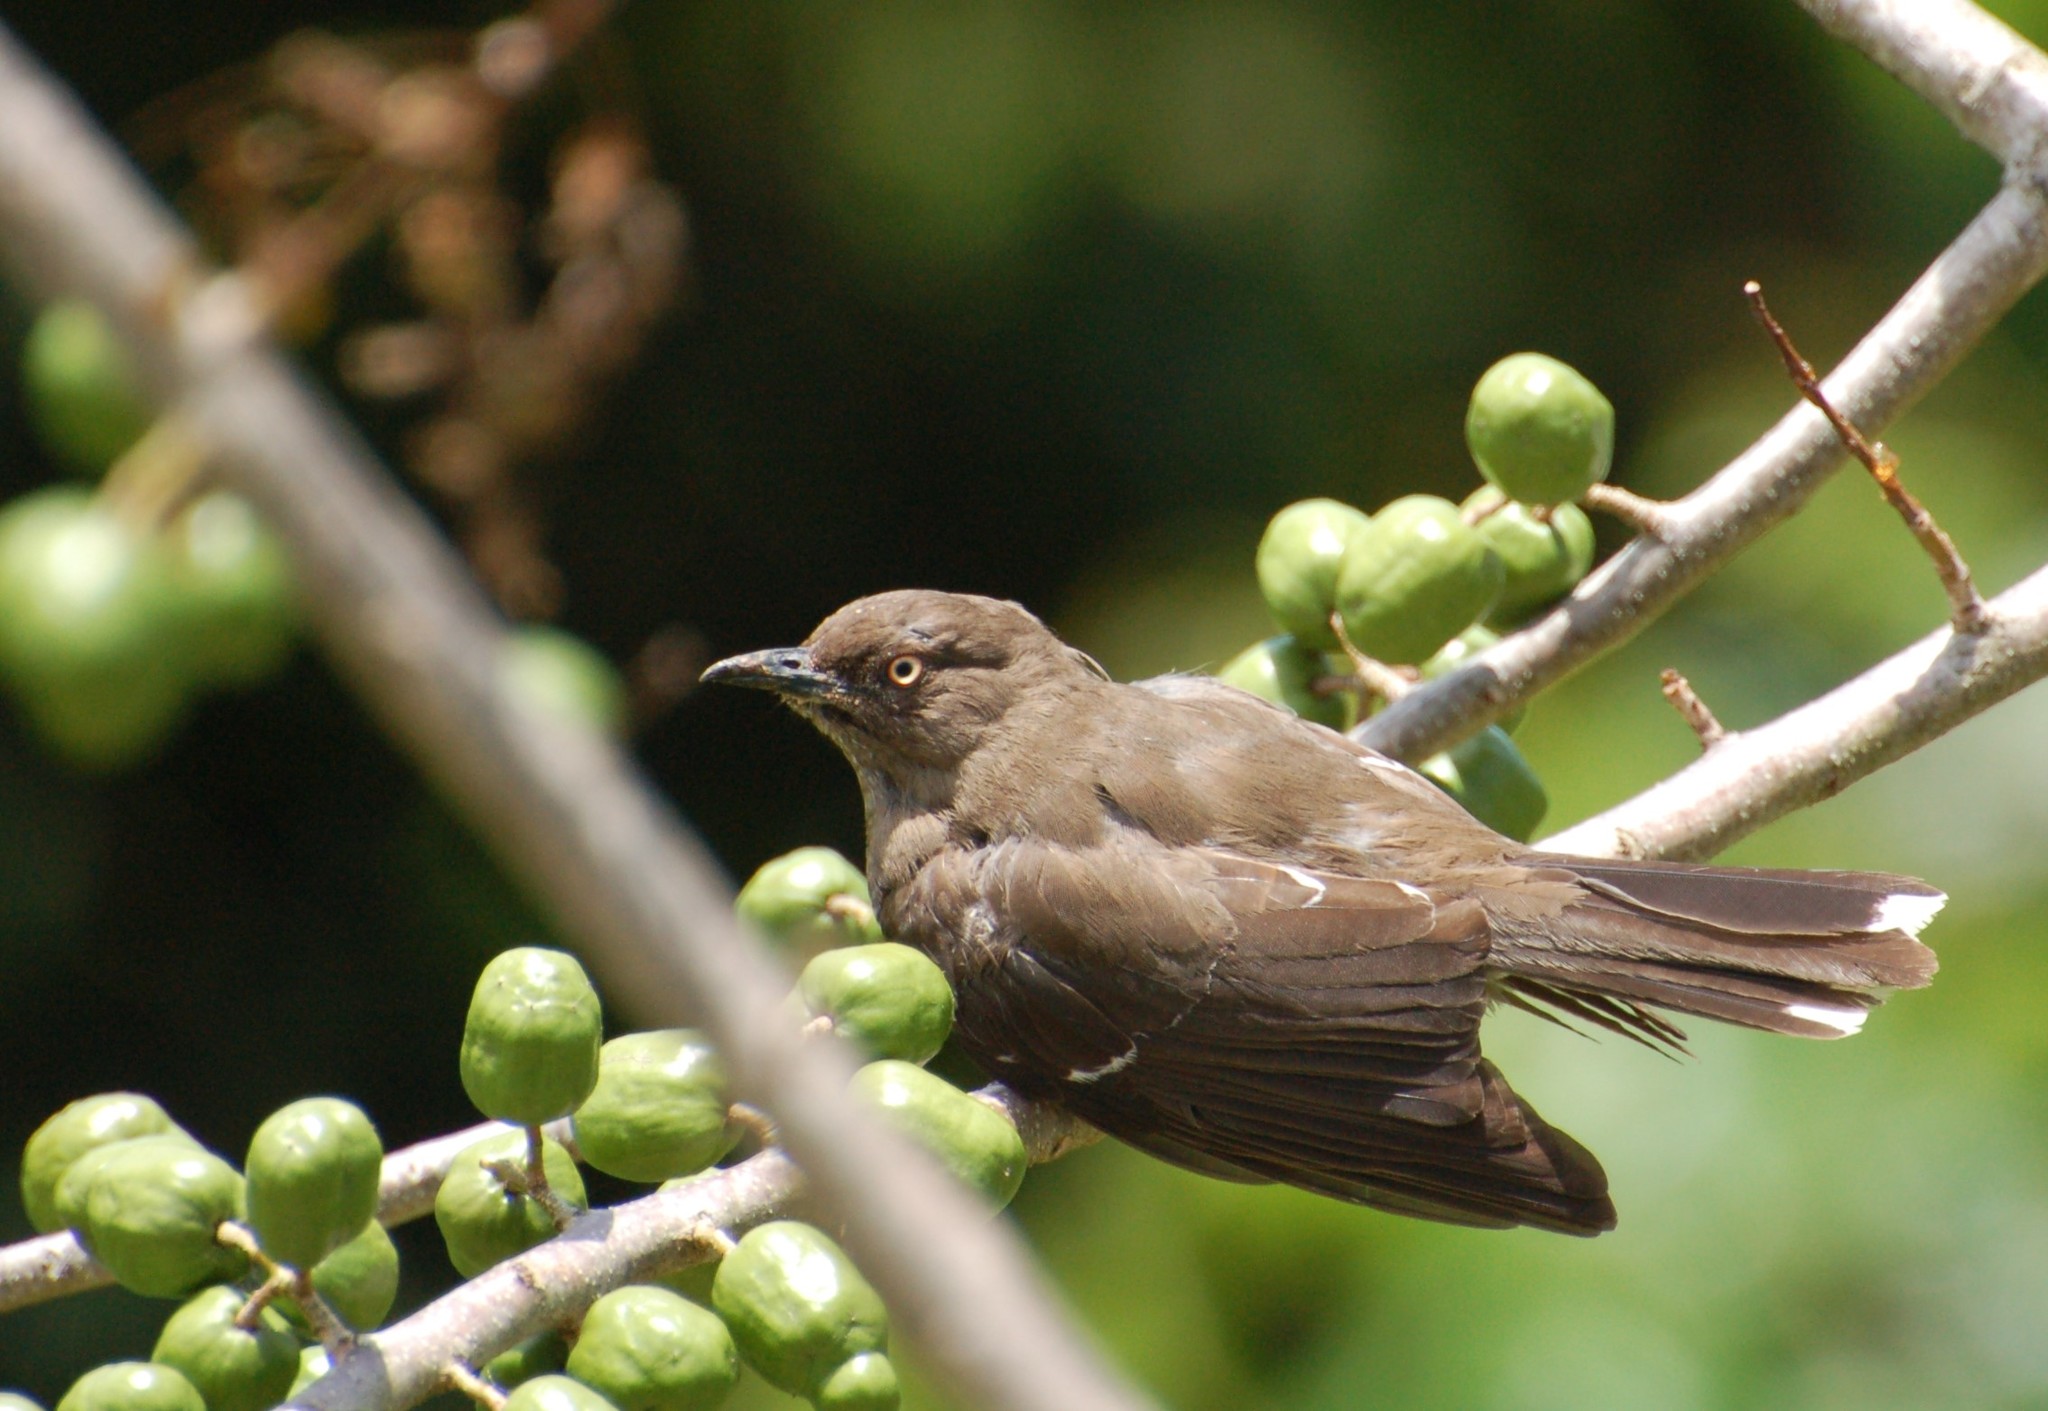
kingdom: Animalia
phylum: Chordata
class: Aves
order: Passeriformes
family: Mimidae
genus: Allenia
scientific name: Allenia fusca
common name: Scaly-breasted thrasher
